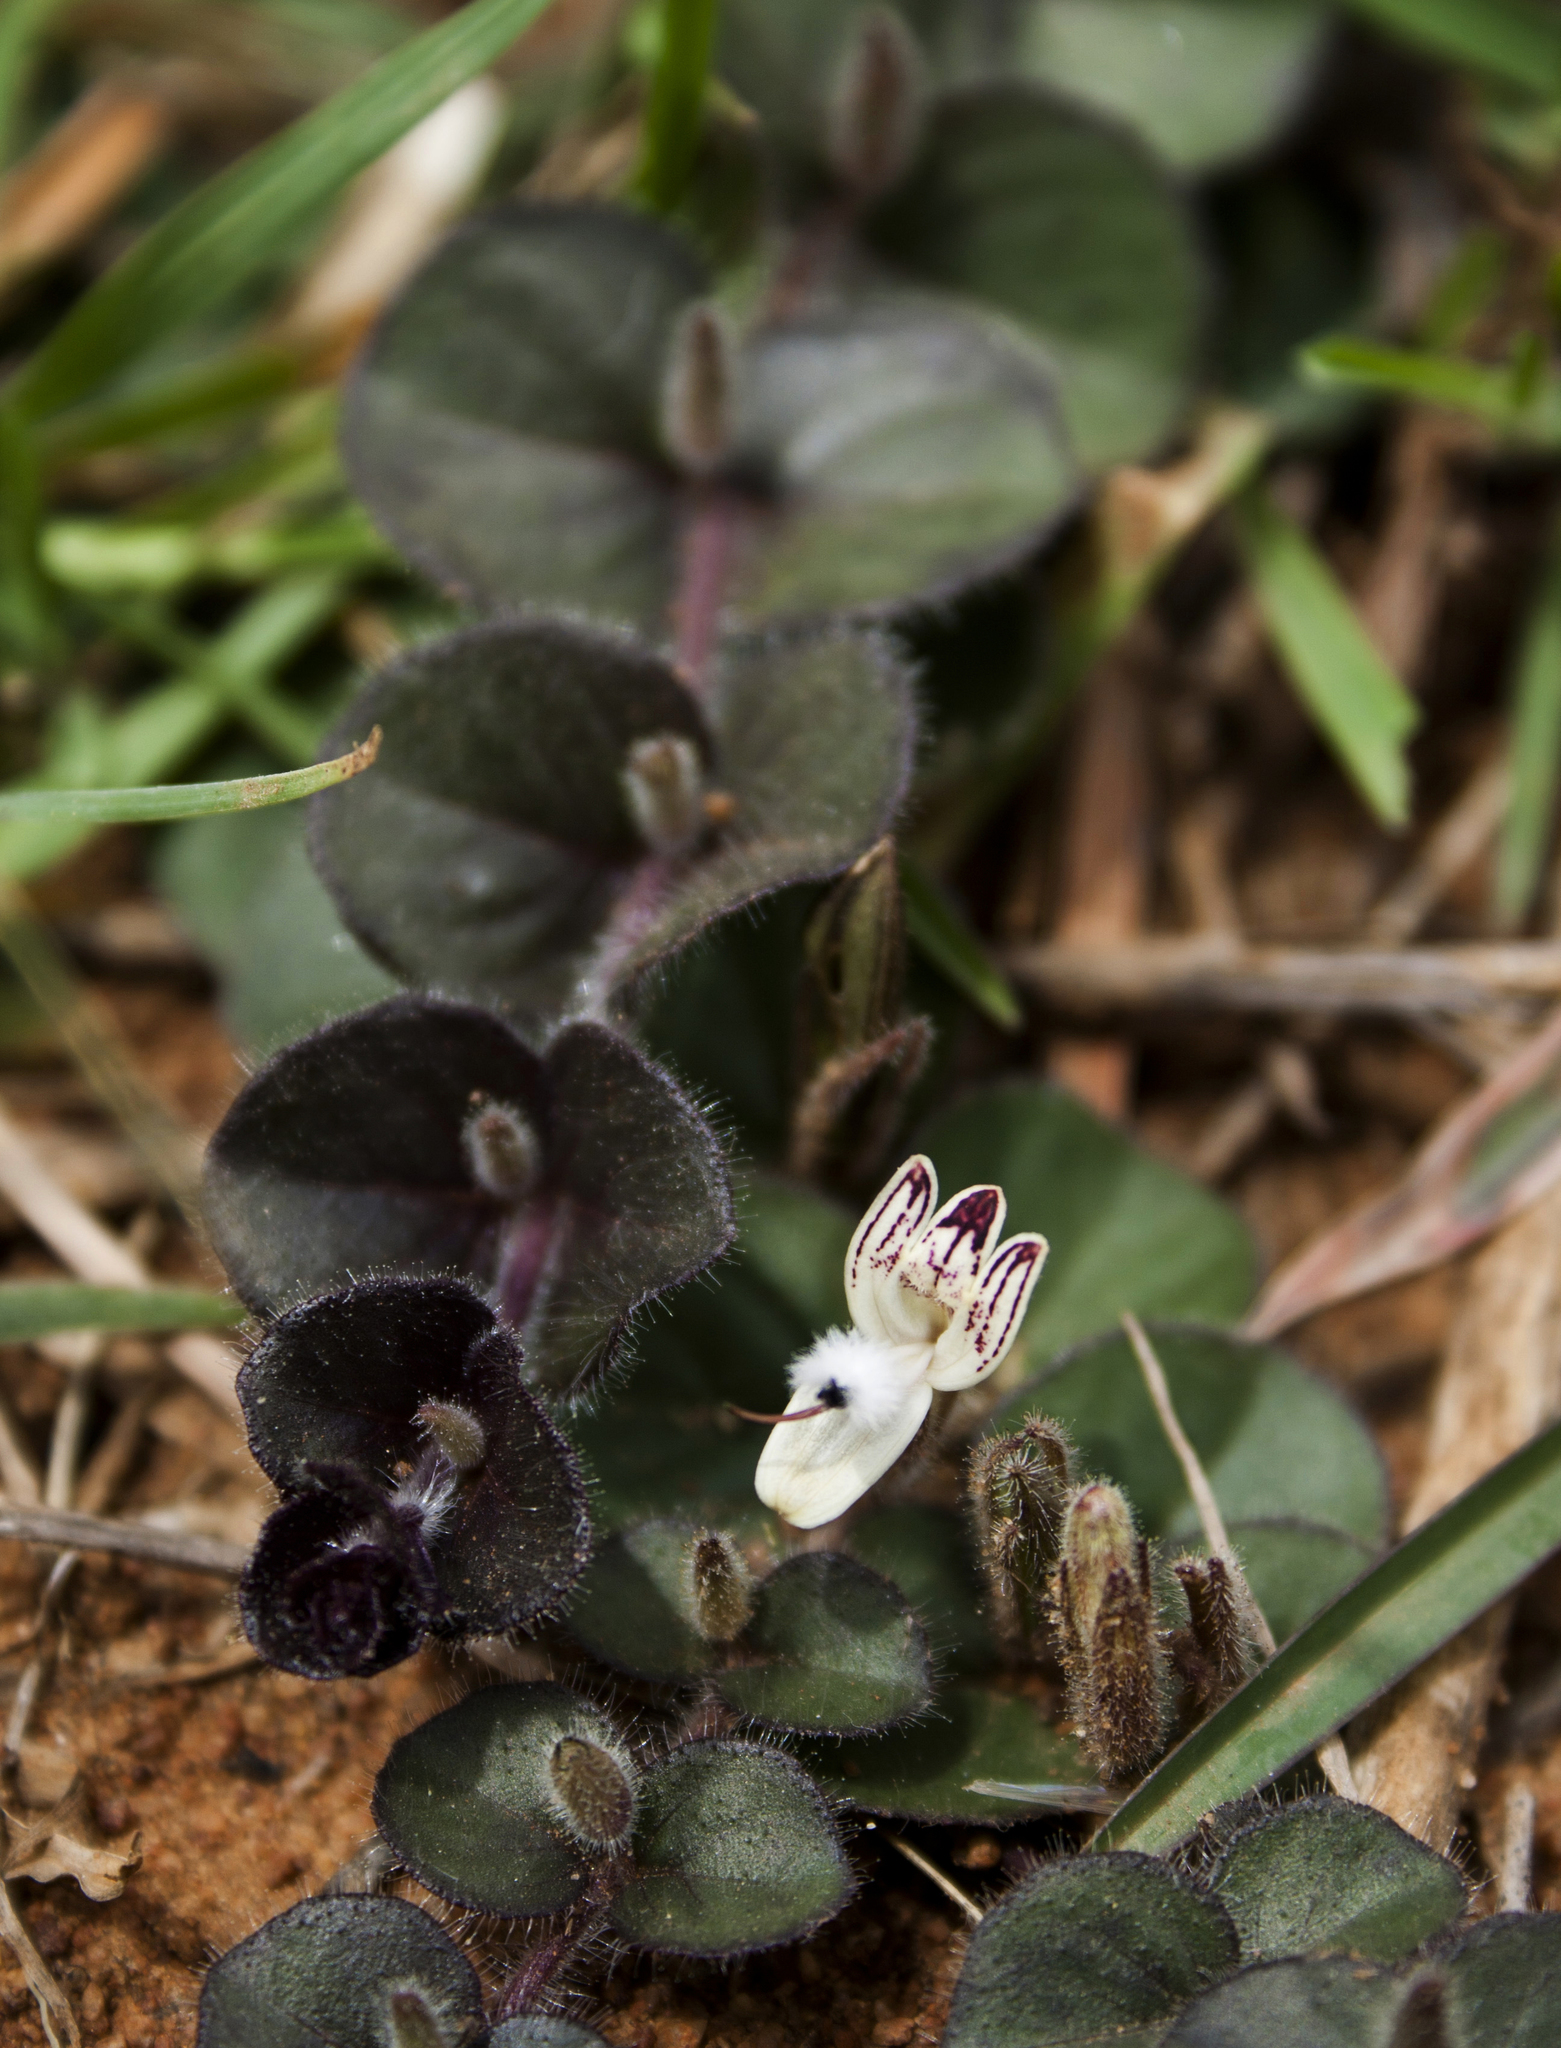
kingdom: Plantae
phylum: Tracheophyta
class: Magnoliopsida
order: Lamiales
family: Acanthaceae
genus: Andrographis
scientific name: Andrographis serpyllifolia
